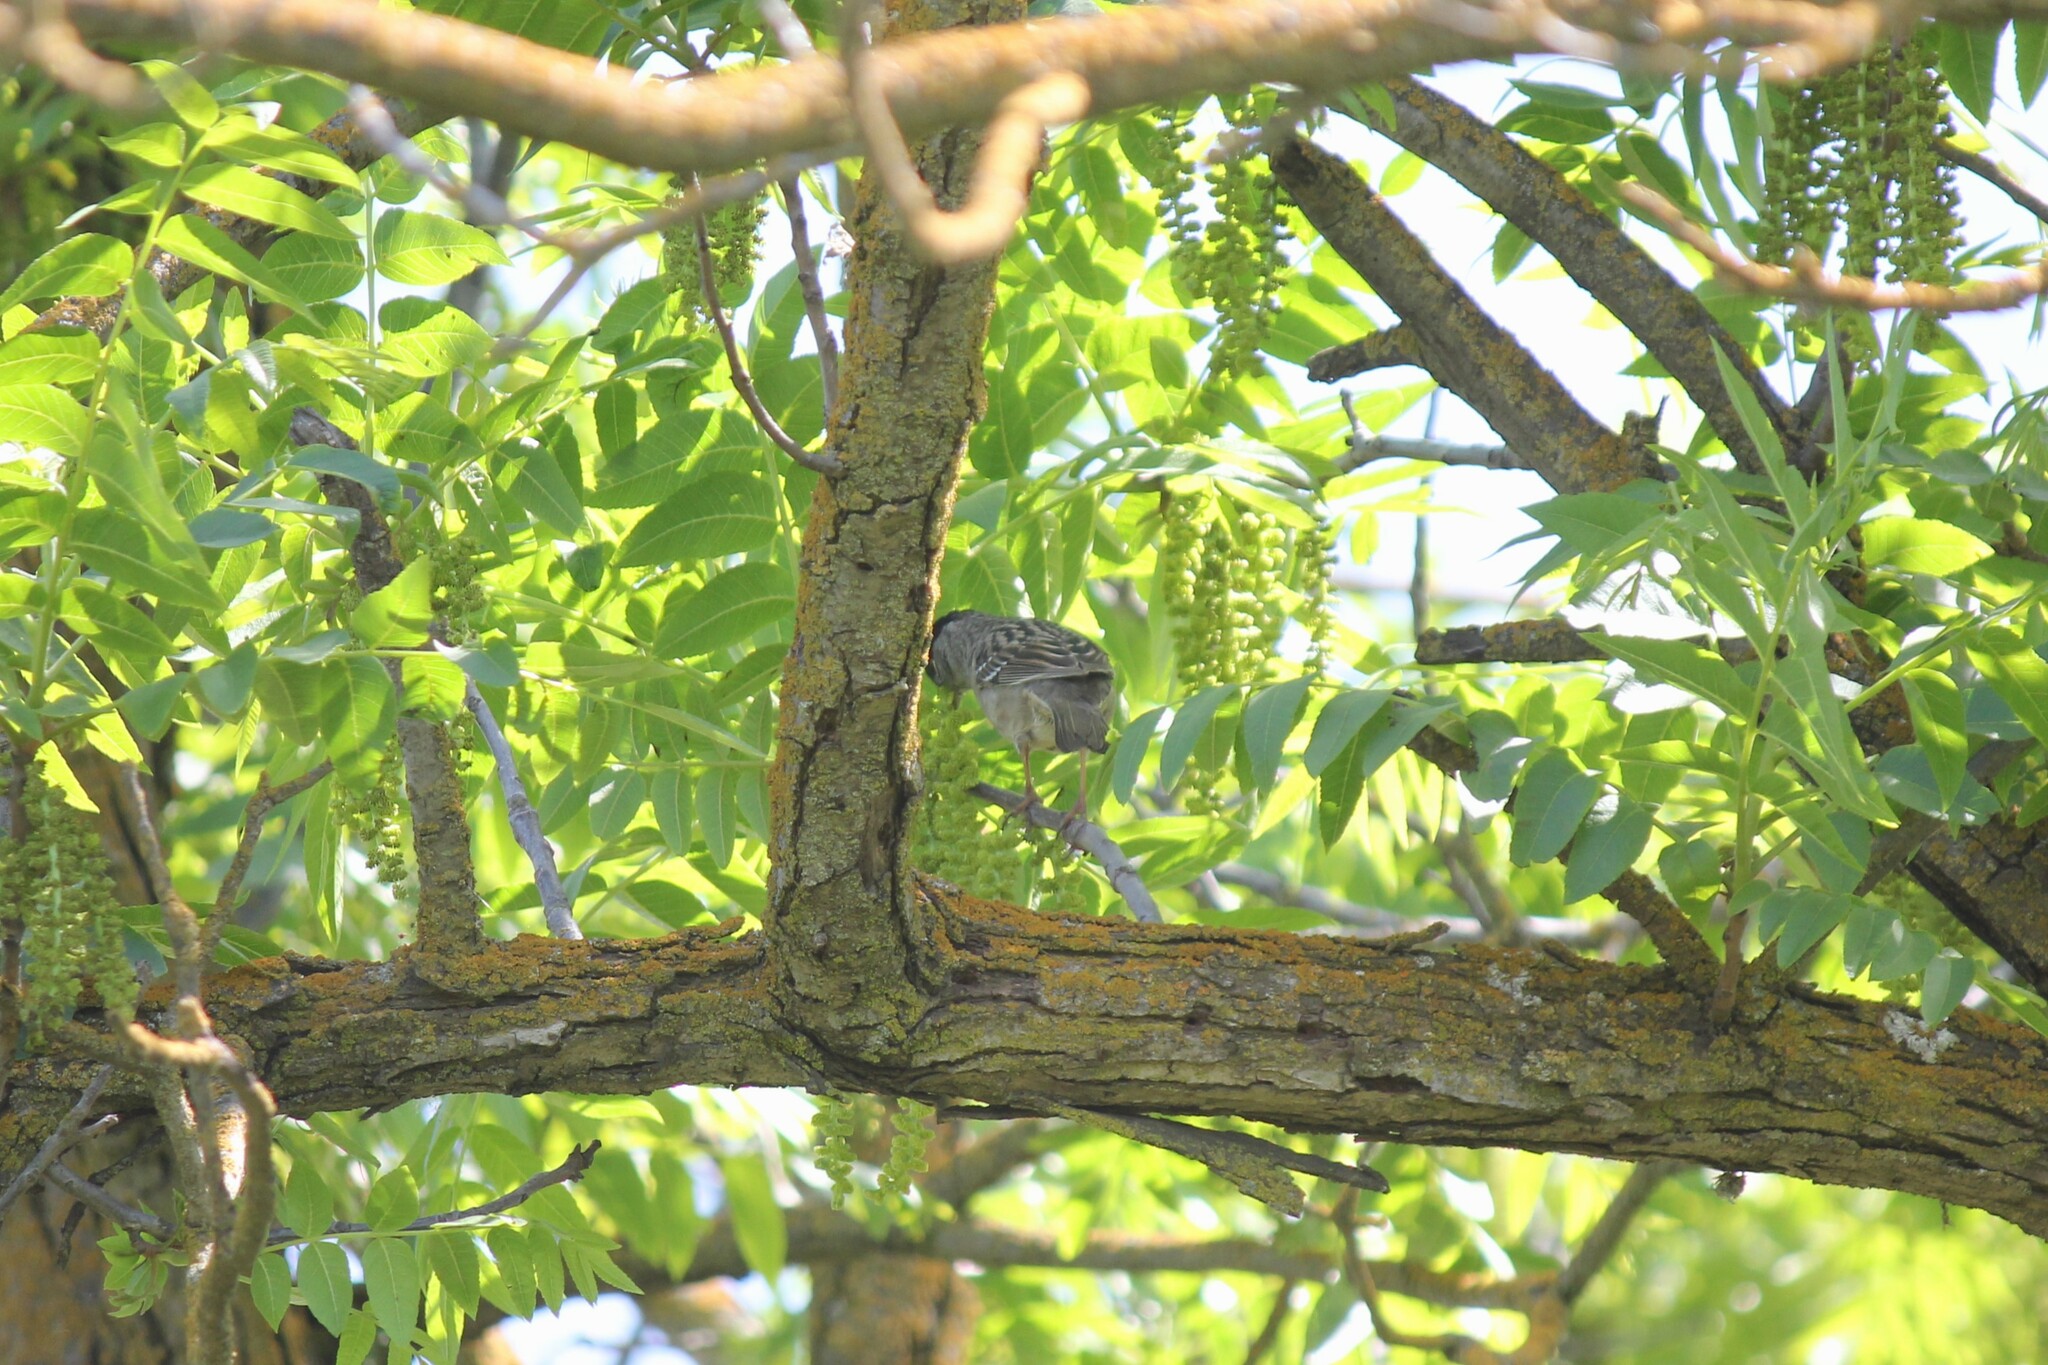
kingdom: Animalia
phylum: Chordata
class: Aves
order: Passeriformes
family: Passerellidae
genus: Zonotrichia
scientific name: Zonotrichia atricapilla
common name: Golden-crowned sparrow
